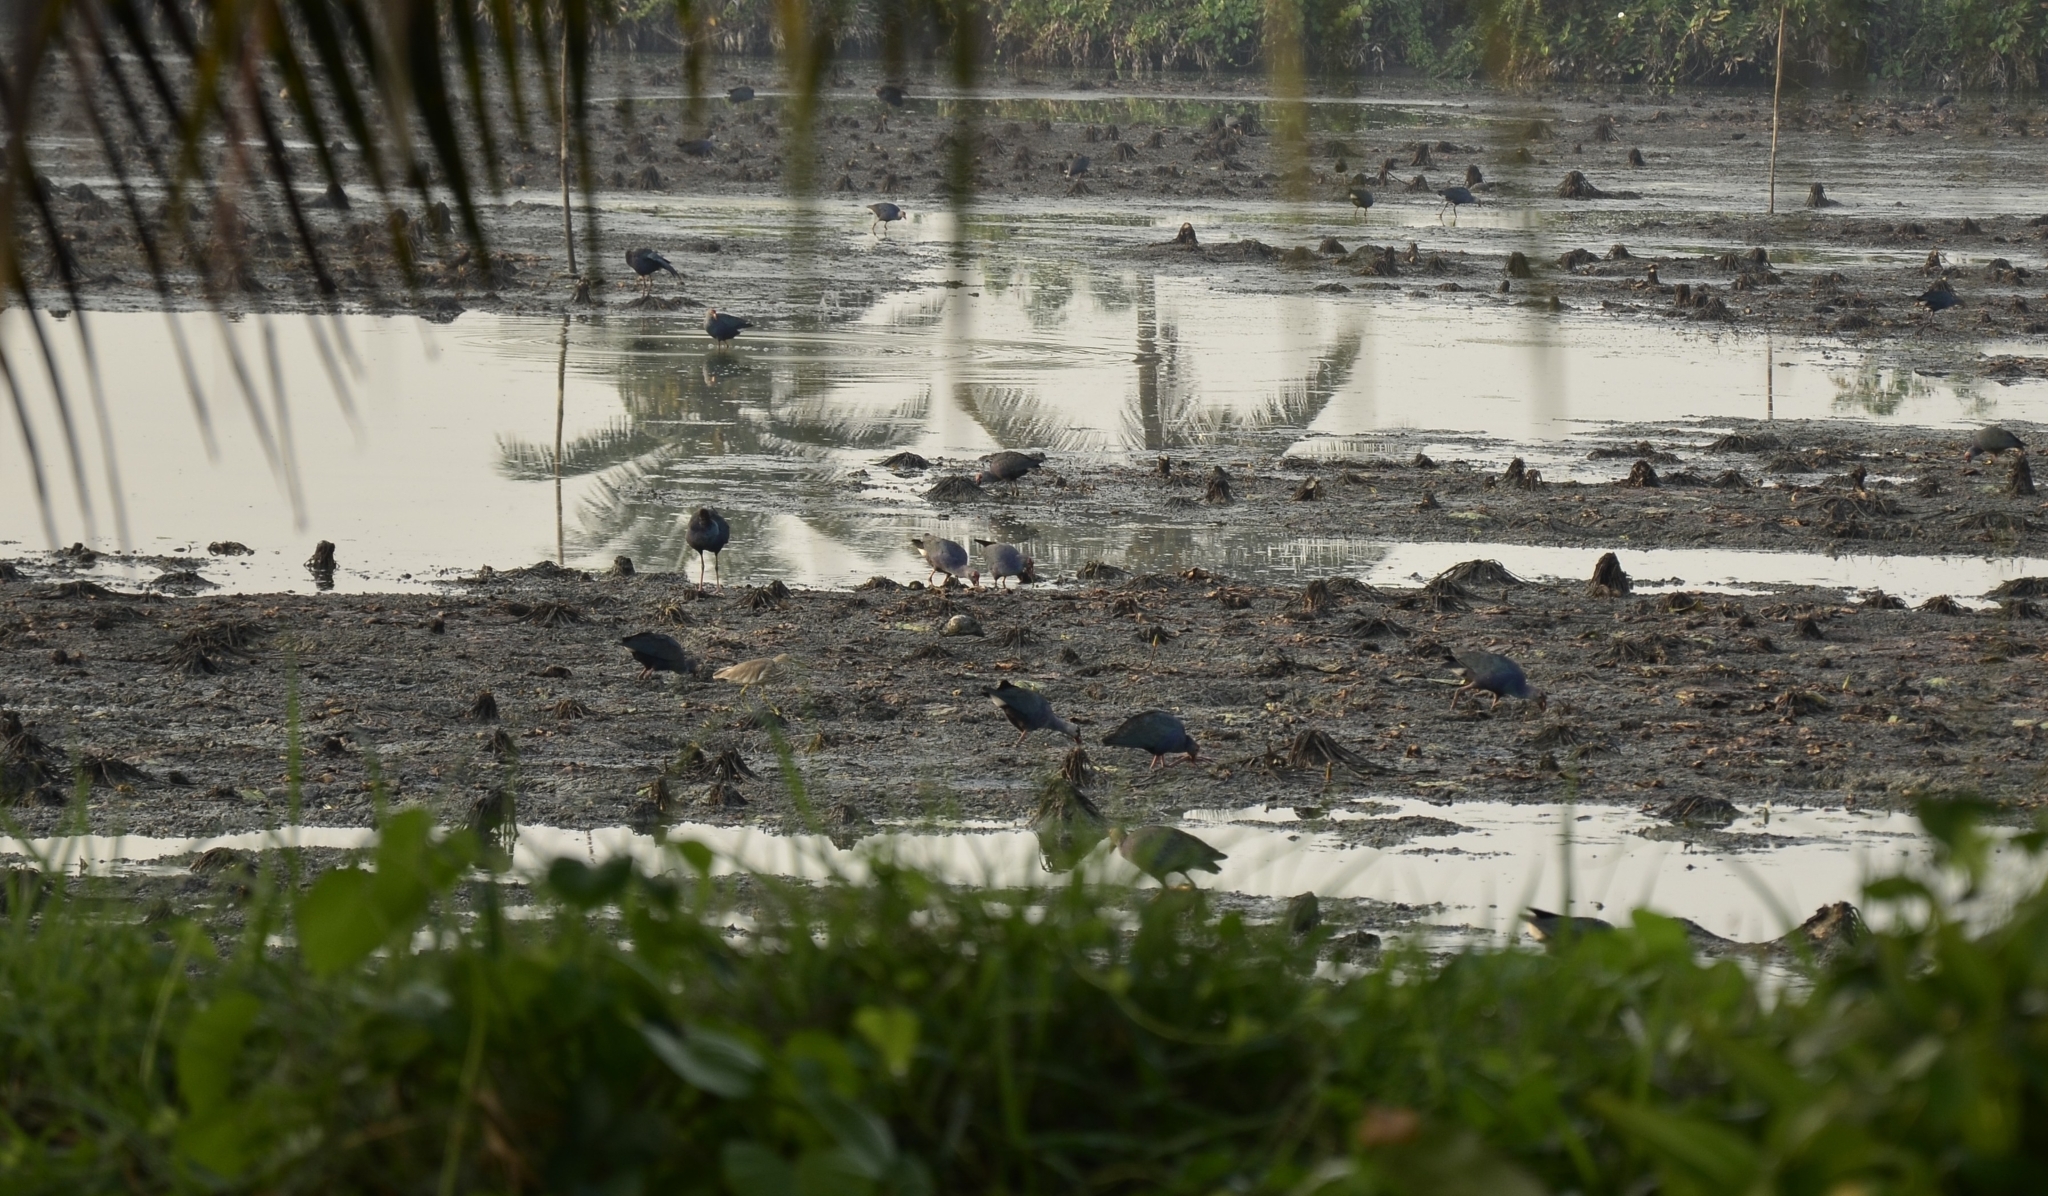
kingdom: Animalia
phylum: Chordata
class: Aves
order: Gruiformes
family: Rallidae
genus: Porphyrio
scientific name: Porphyrio porphyrio
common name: Purple swamphen
